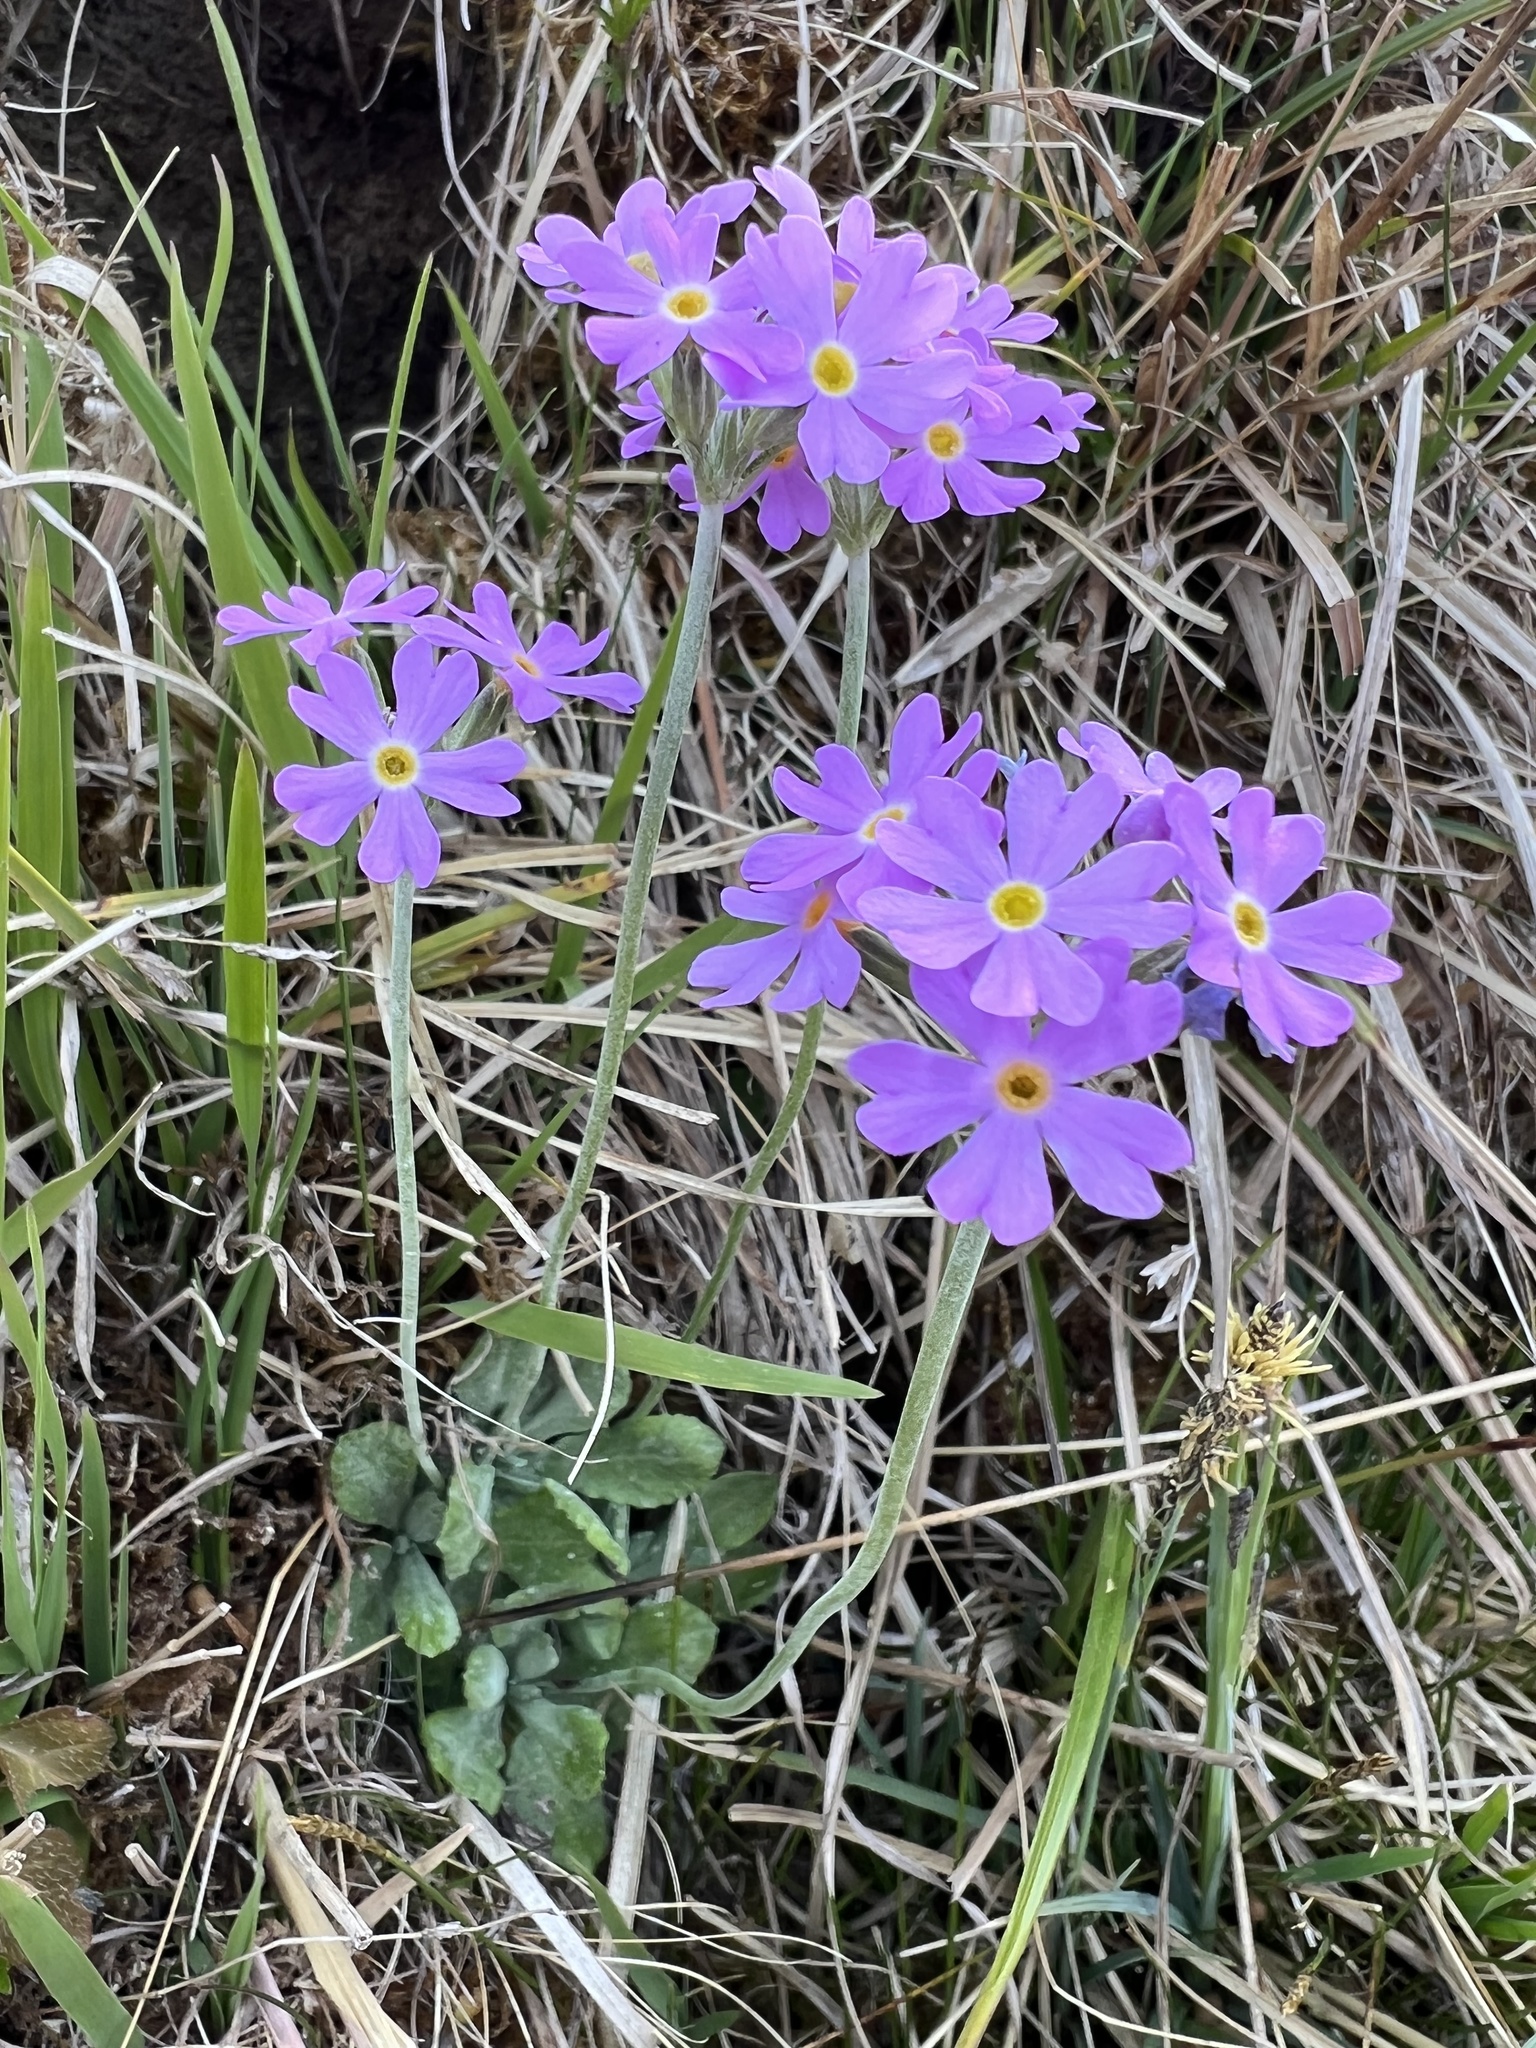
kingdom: Plantae
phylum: Tracheophyta
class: Magnoliopsida
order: Ericales
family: Primulaceae
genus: Primula
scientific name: Primula farinosa
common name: Bird's-eye primrose
